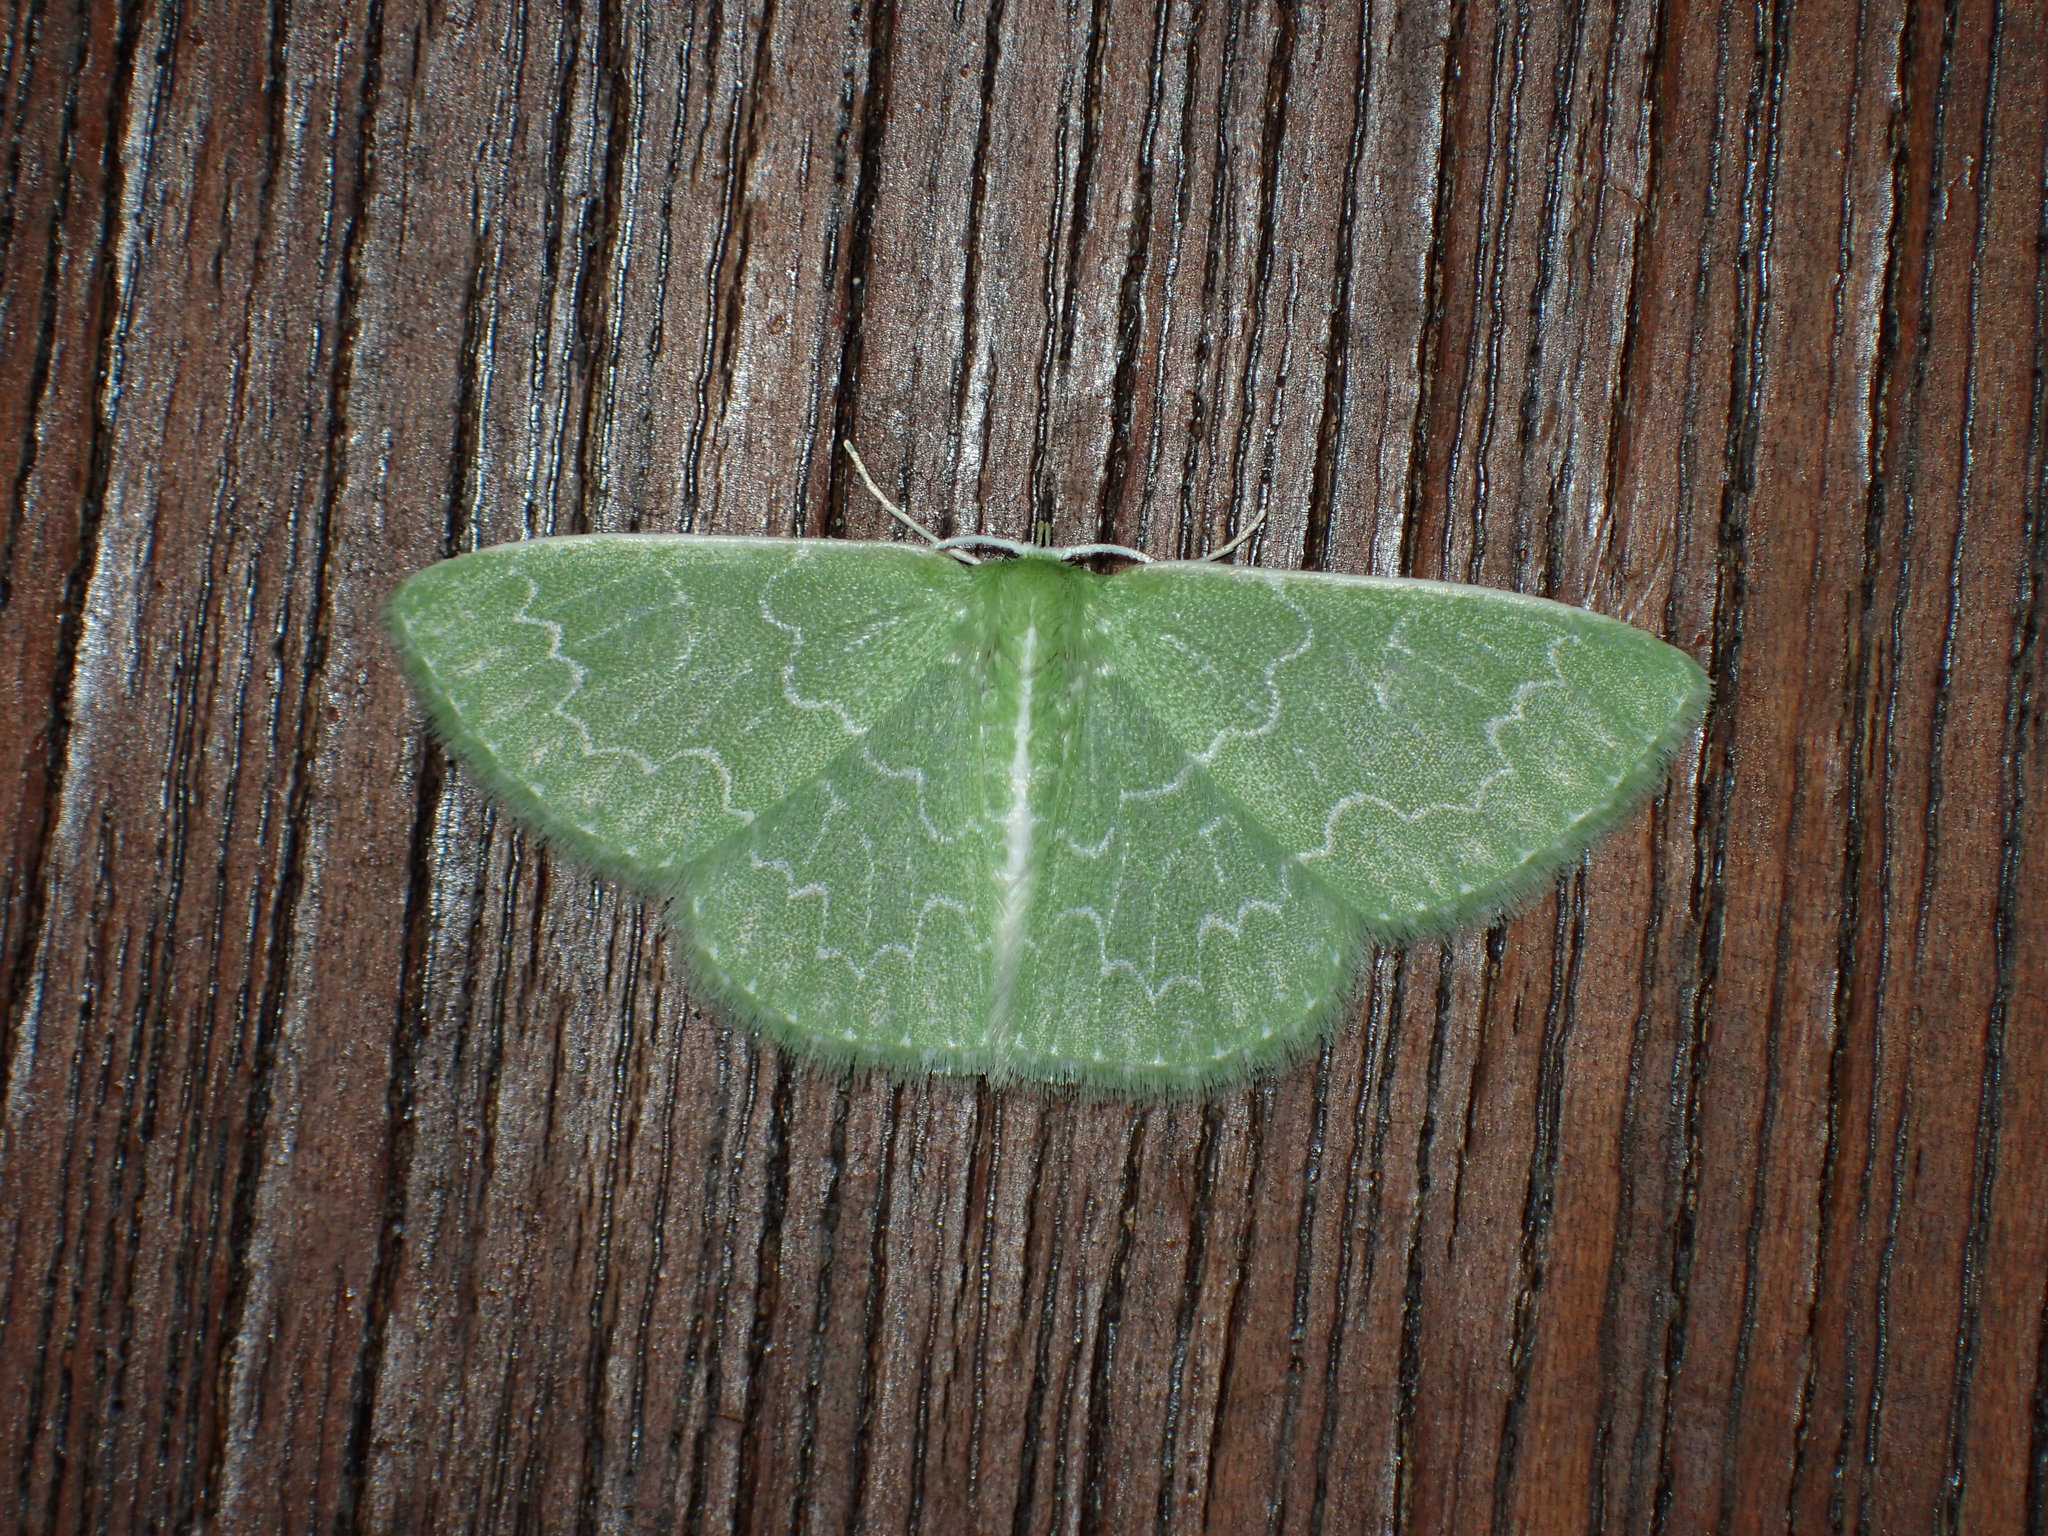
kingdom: Animalia
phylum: Arthropoda
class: Insecta
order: Lepidoptera
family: Geometridae
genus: Synchlora
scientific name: Synchlora frondaria
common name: Southern emerald
